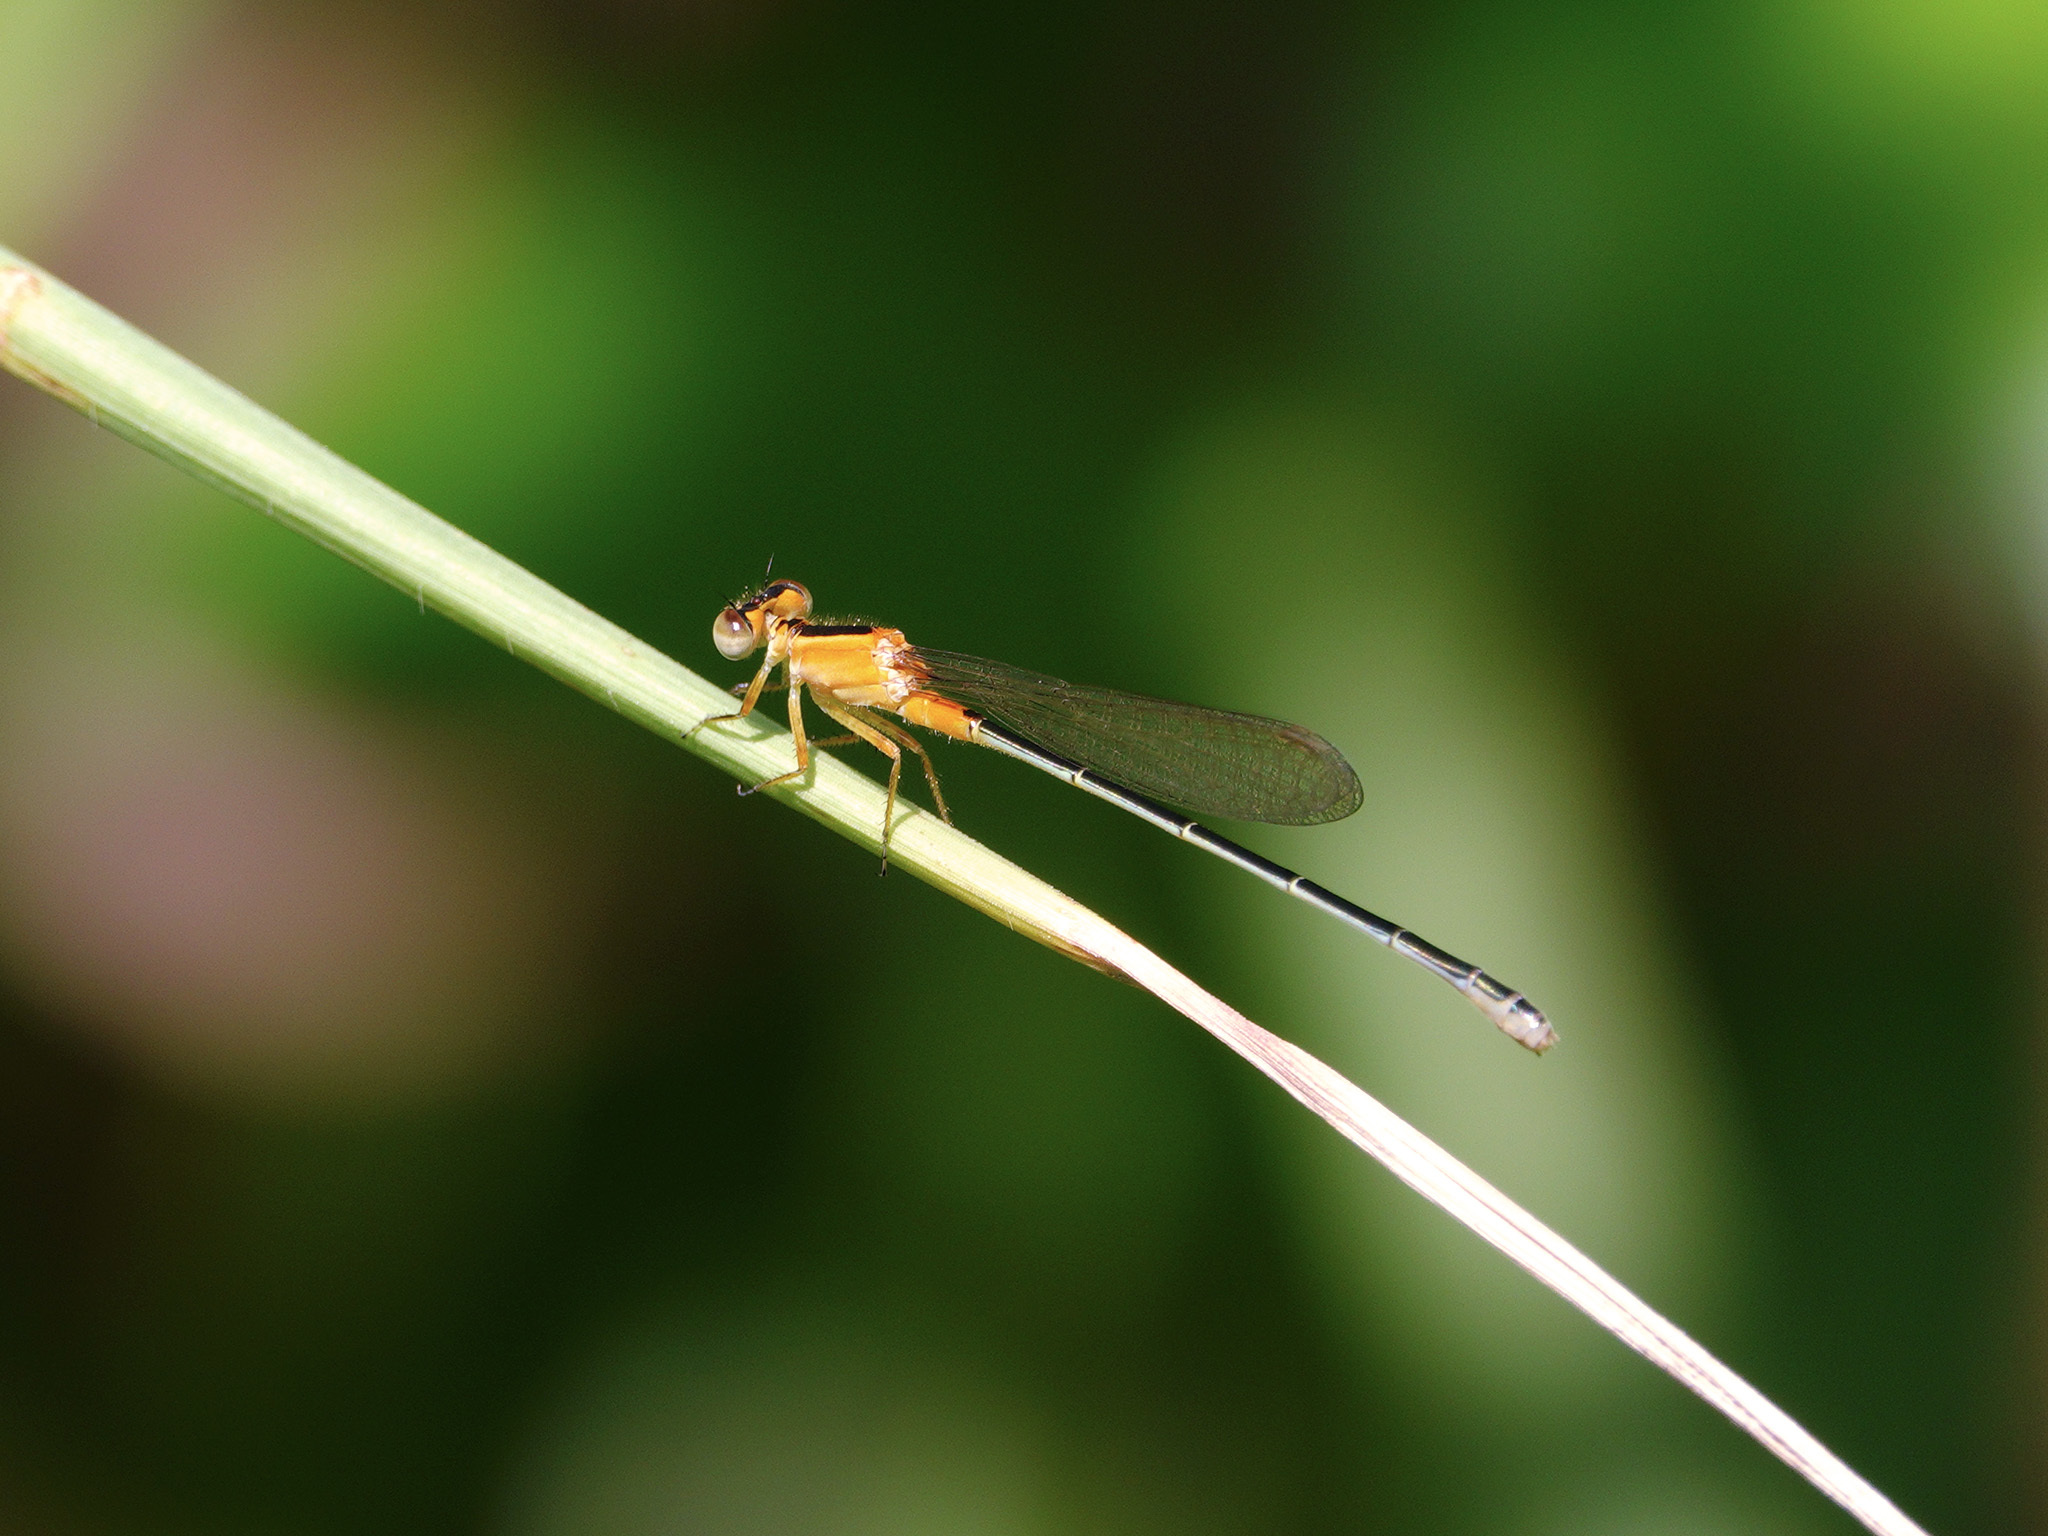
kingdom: Animalia
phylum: Arthropoda
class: Insecta
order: Odonata
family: Coenagrionidae
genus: Ischnura
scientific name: Ischnura senegalensis
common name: Tropical bluetail
